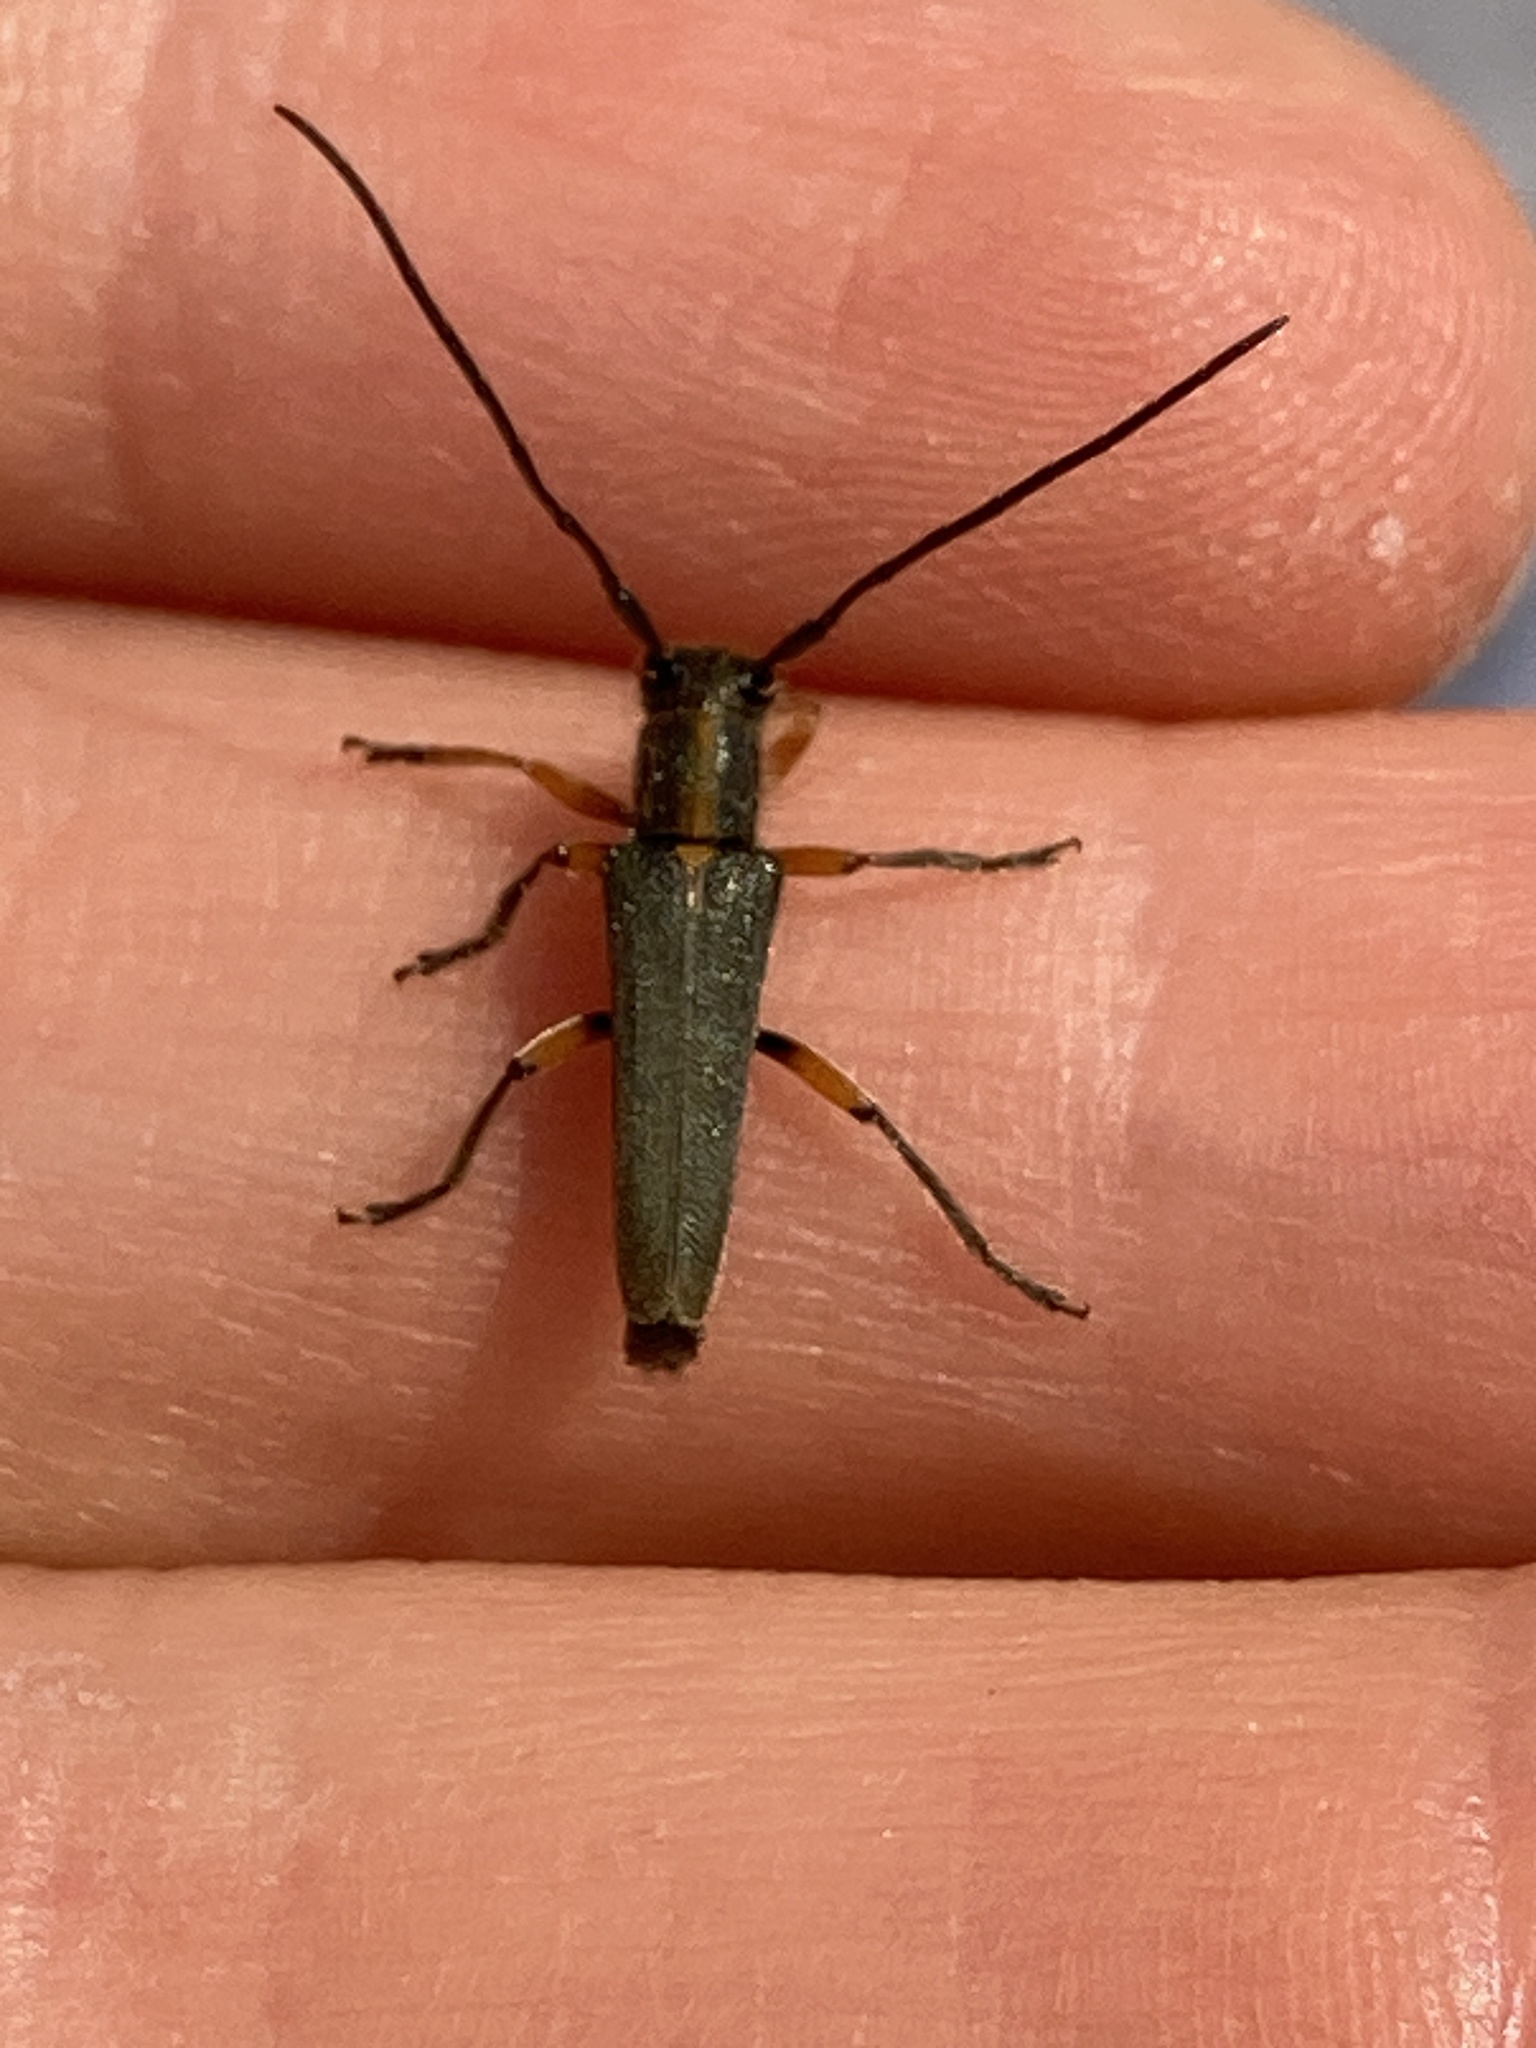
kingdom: Animalia
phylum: Arthropoda
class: Insecta
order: Coleoptera
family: Cerambycidae
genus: Phytoecia
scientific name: Phytoecia icterica
